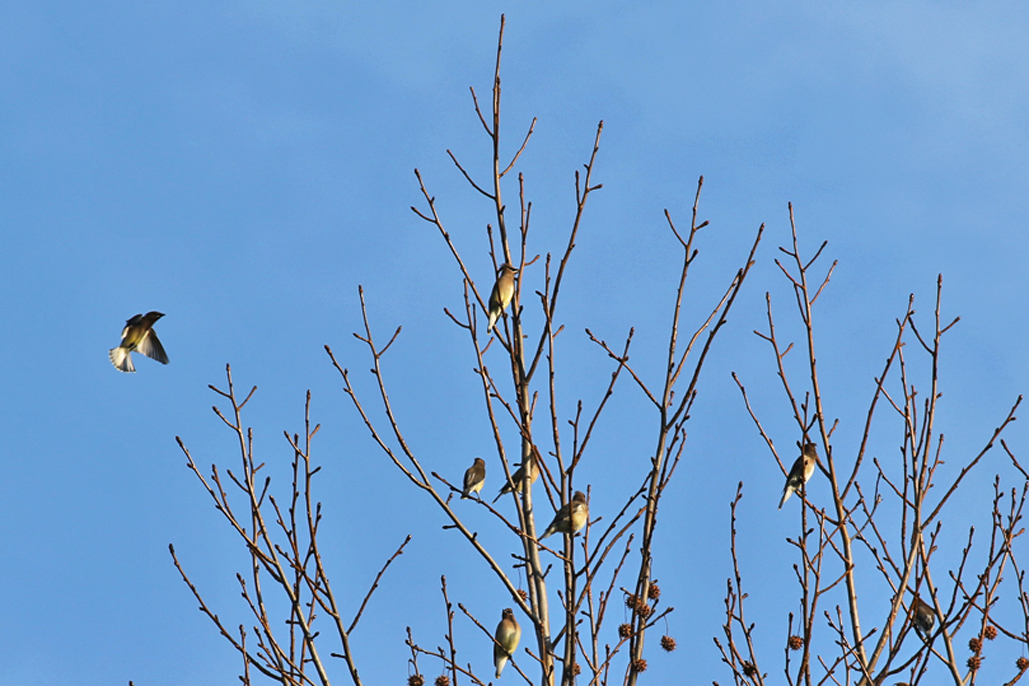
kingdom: Animalia
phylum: Chordata
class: Aves
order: Passeriformes
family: Bombycillidae
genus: Bombycilla
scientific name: Bombycilla cedrorum
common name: Cedar waxwing
